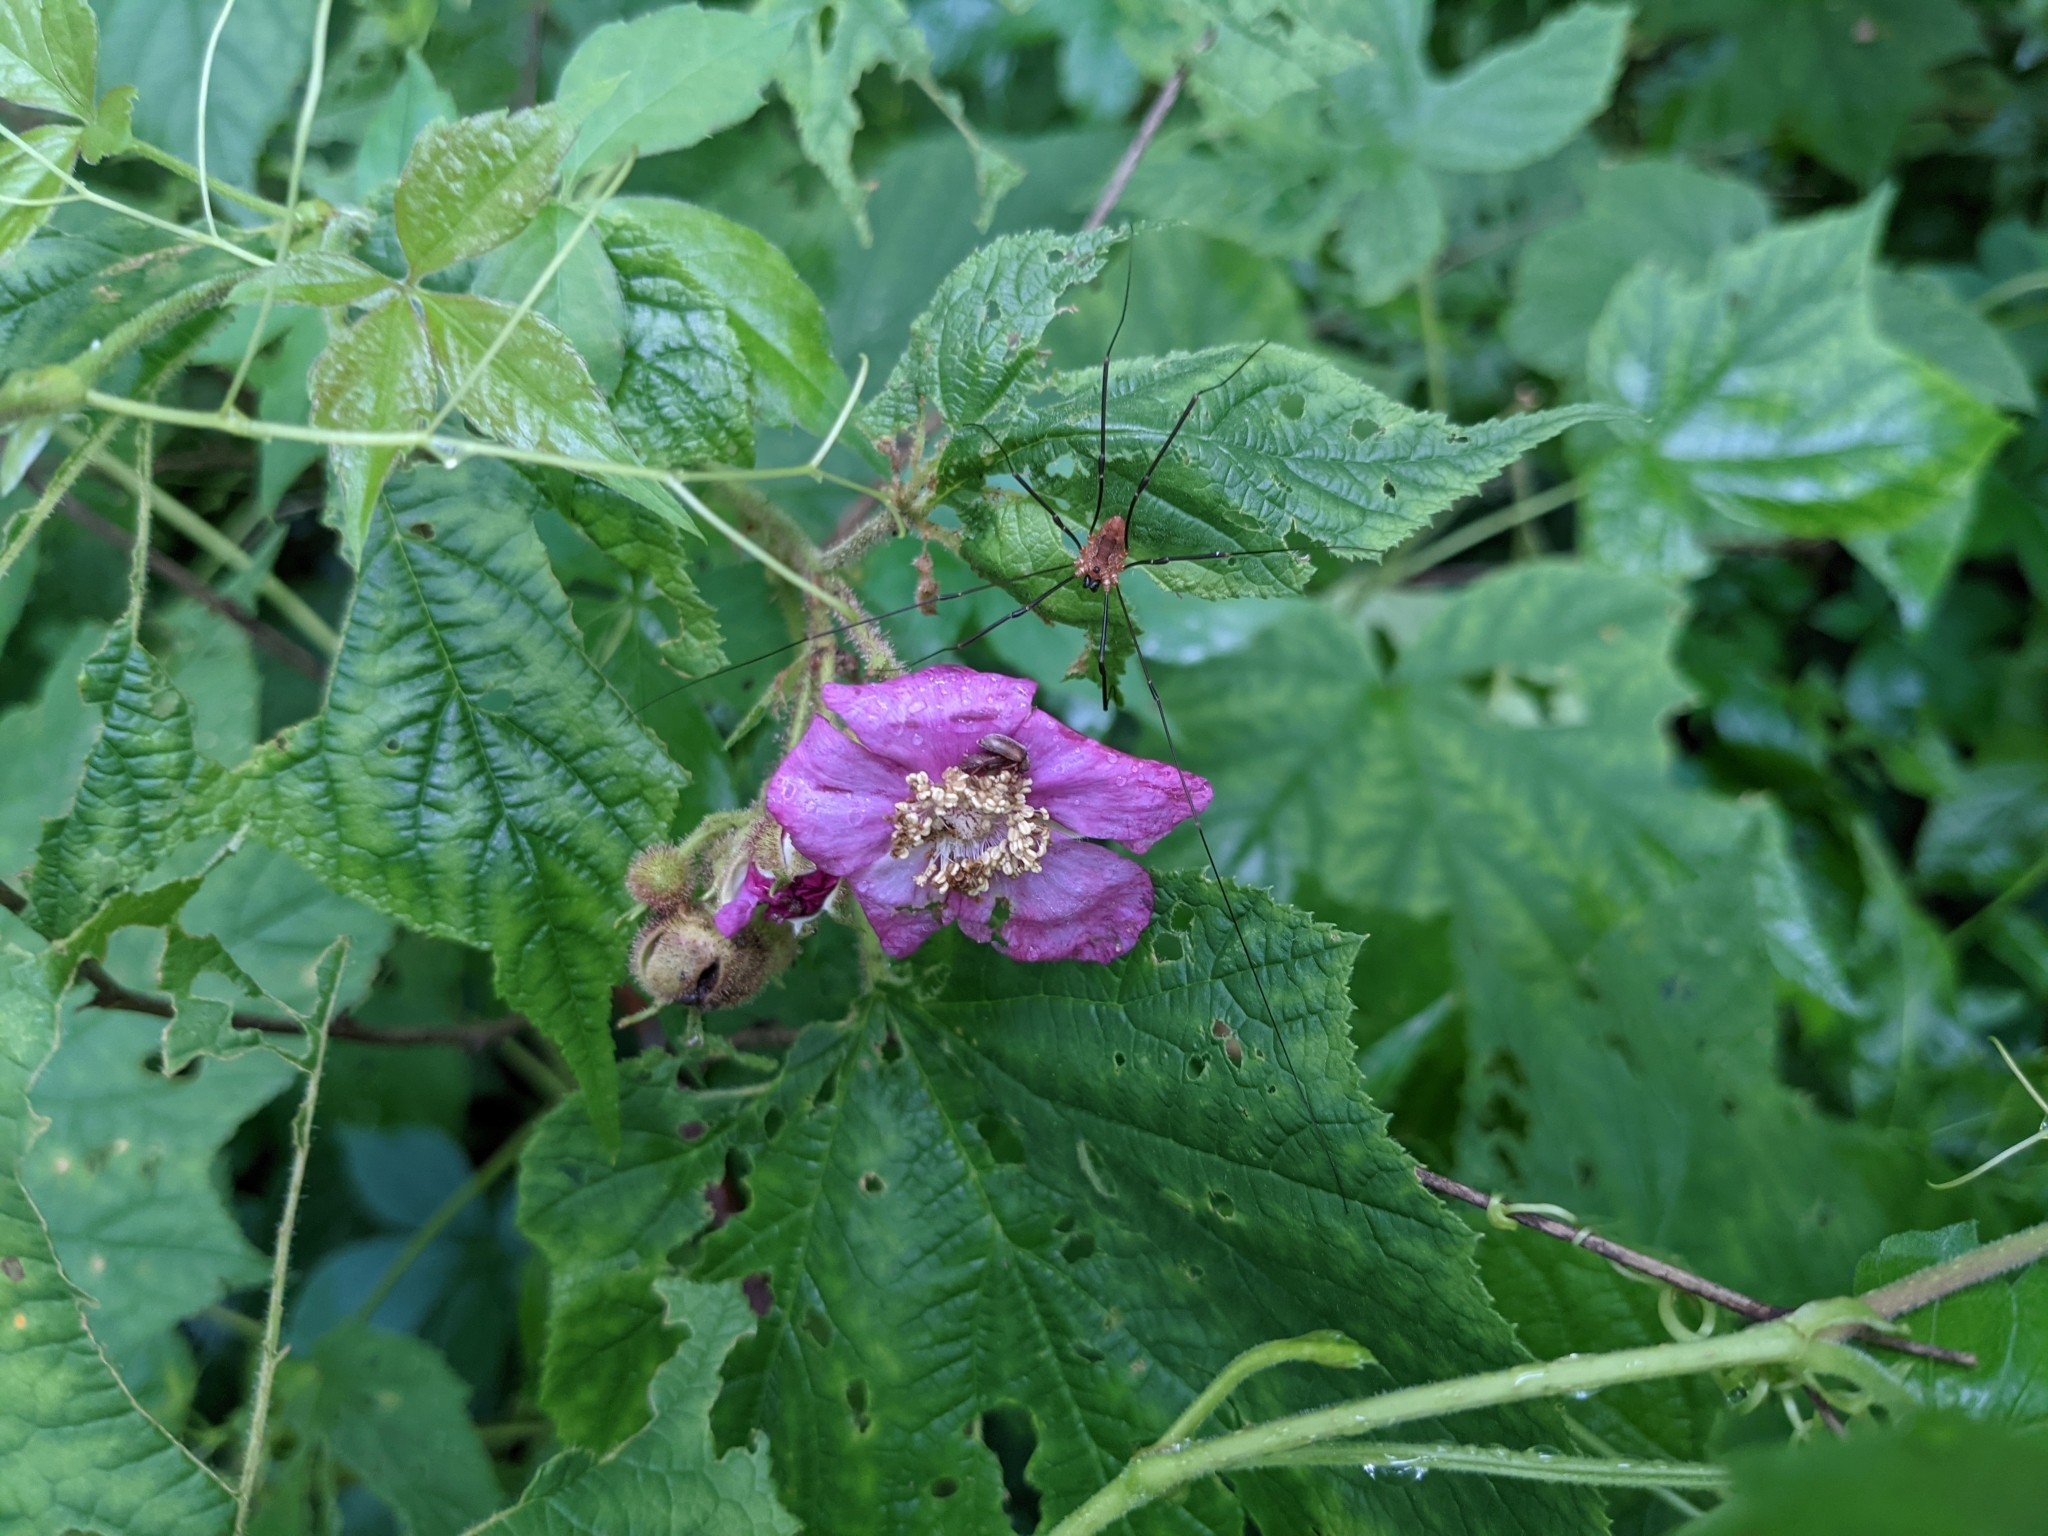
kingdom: Plantae
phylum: Tracheophyta
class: Magnoliopsida
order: Rosales
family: Rosaceae
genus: Rubus
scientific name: Rubus odoratus
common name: Purple-flowered raspberry
